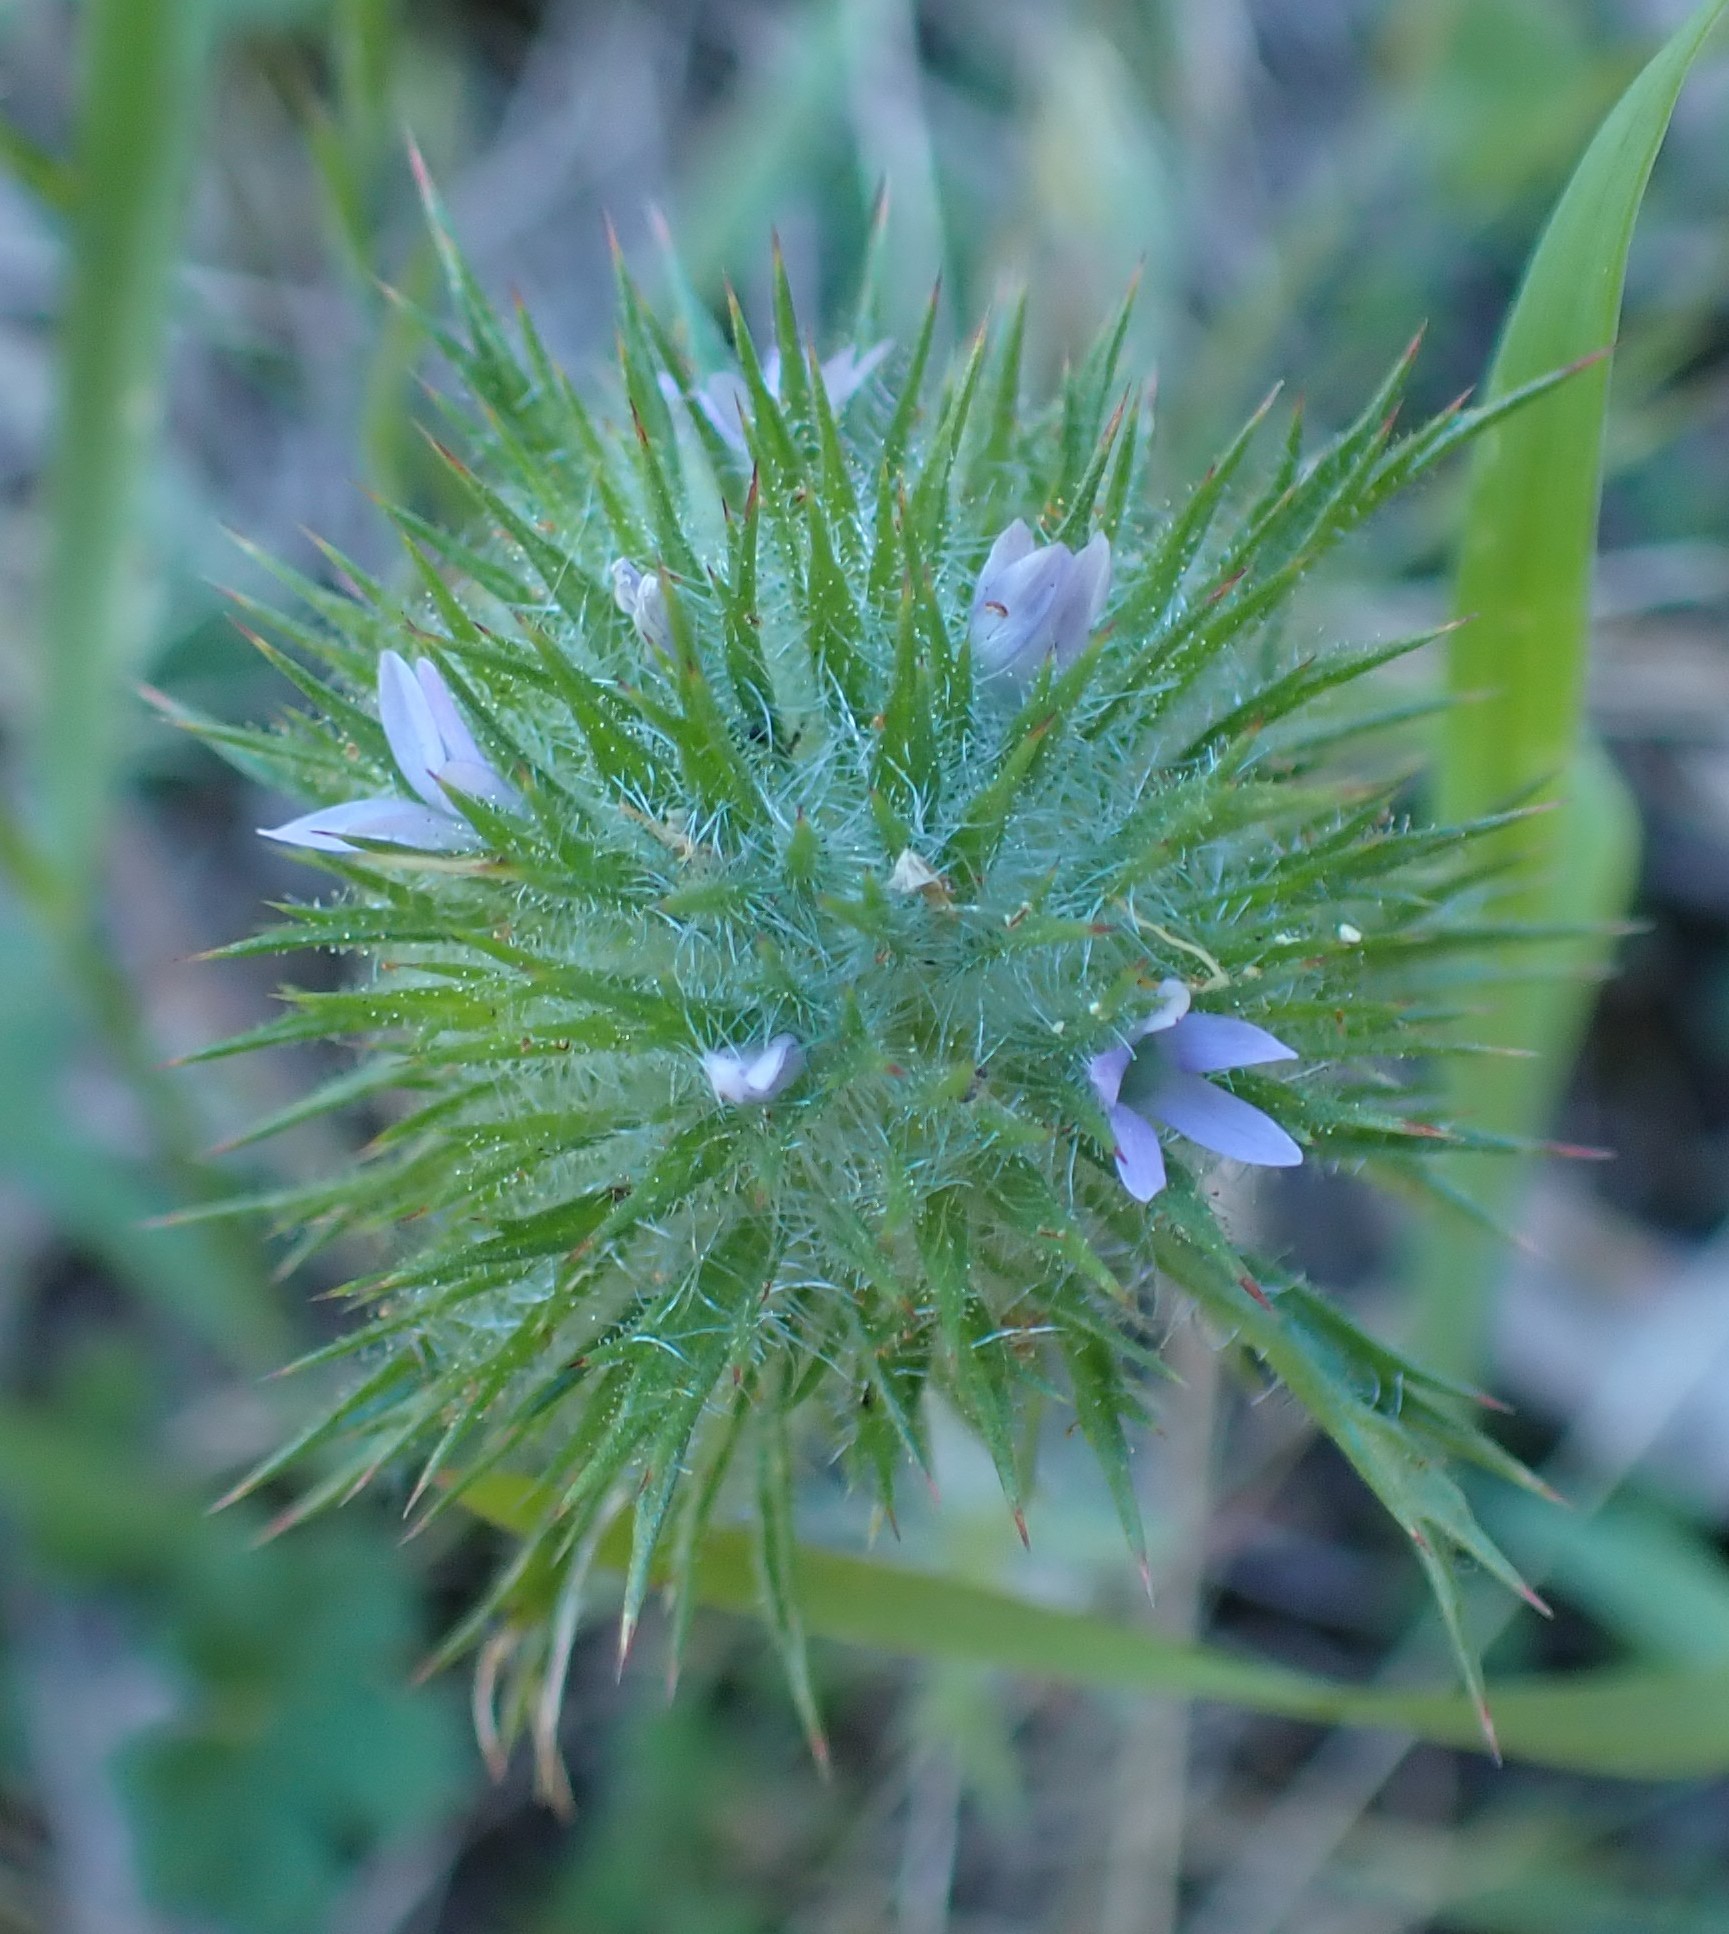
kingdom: Plantae
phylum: Tracheophyta
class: Magnoliopsida
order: Ericales
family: Polemoniaceae
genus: Navarretia
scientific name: Navarretia squarrosa
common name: Skunkweed
